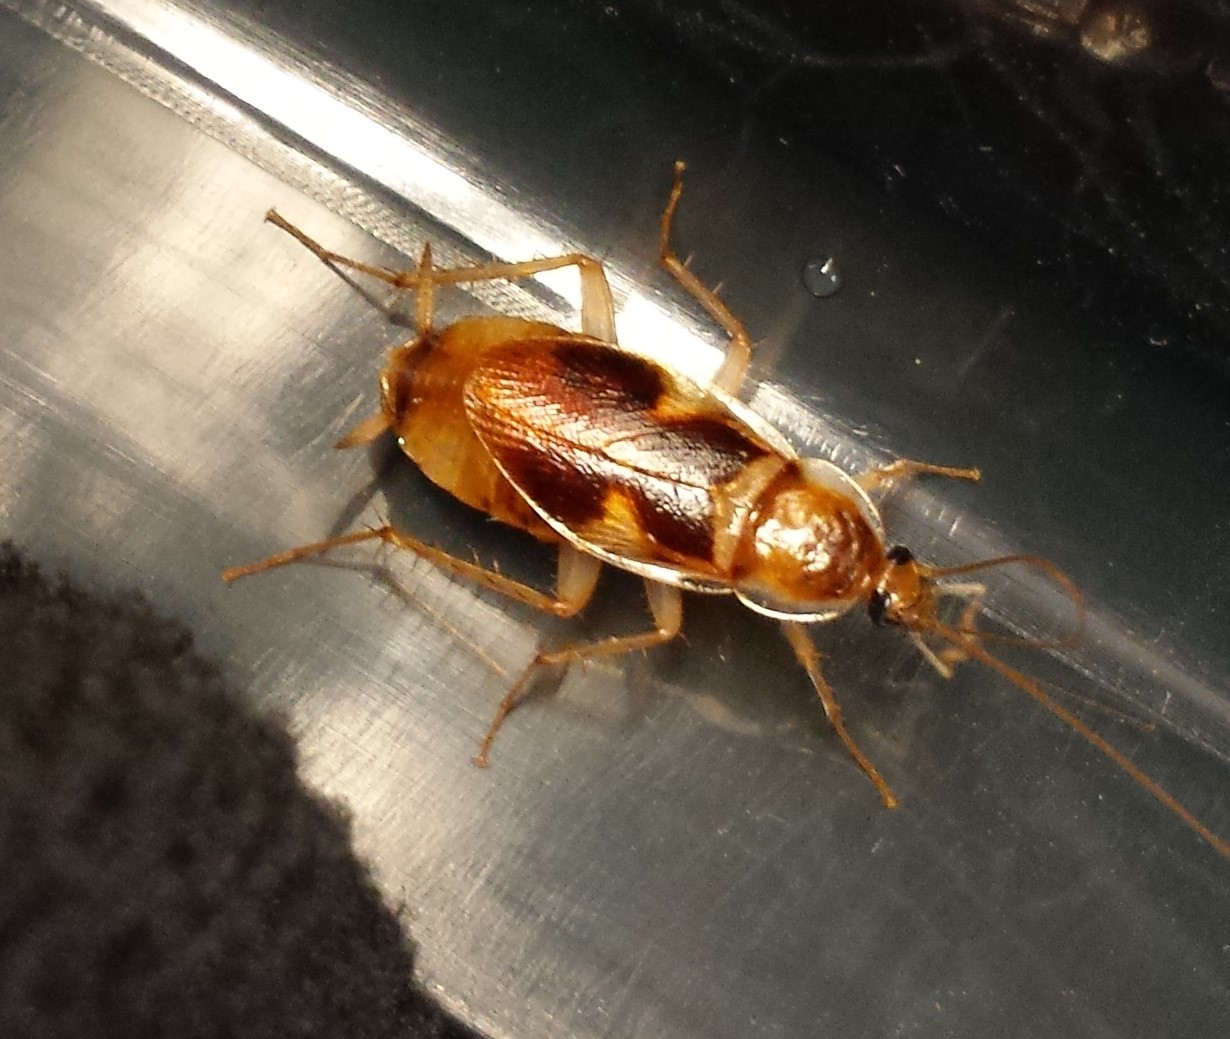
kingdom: Animalia
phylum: Arthropoda
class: Insecta
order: Blattodea
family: Ectobiidae
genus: Supella
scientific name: Supella longipalpa
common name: Brown-banded cockroach
